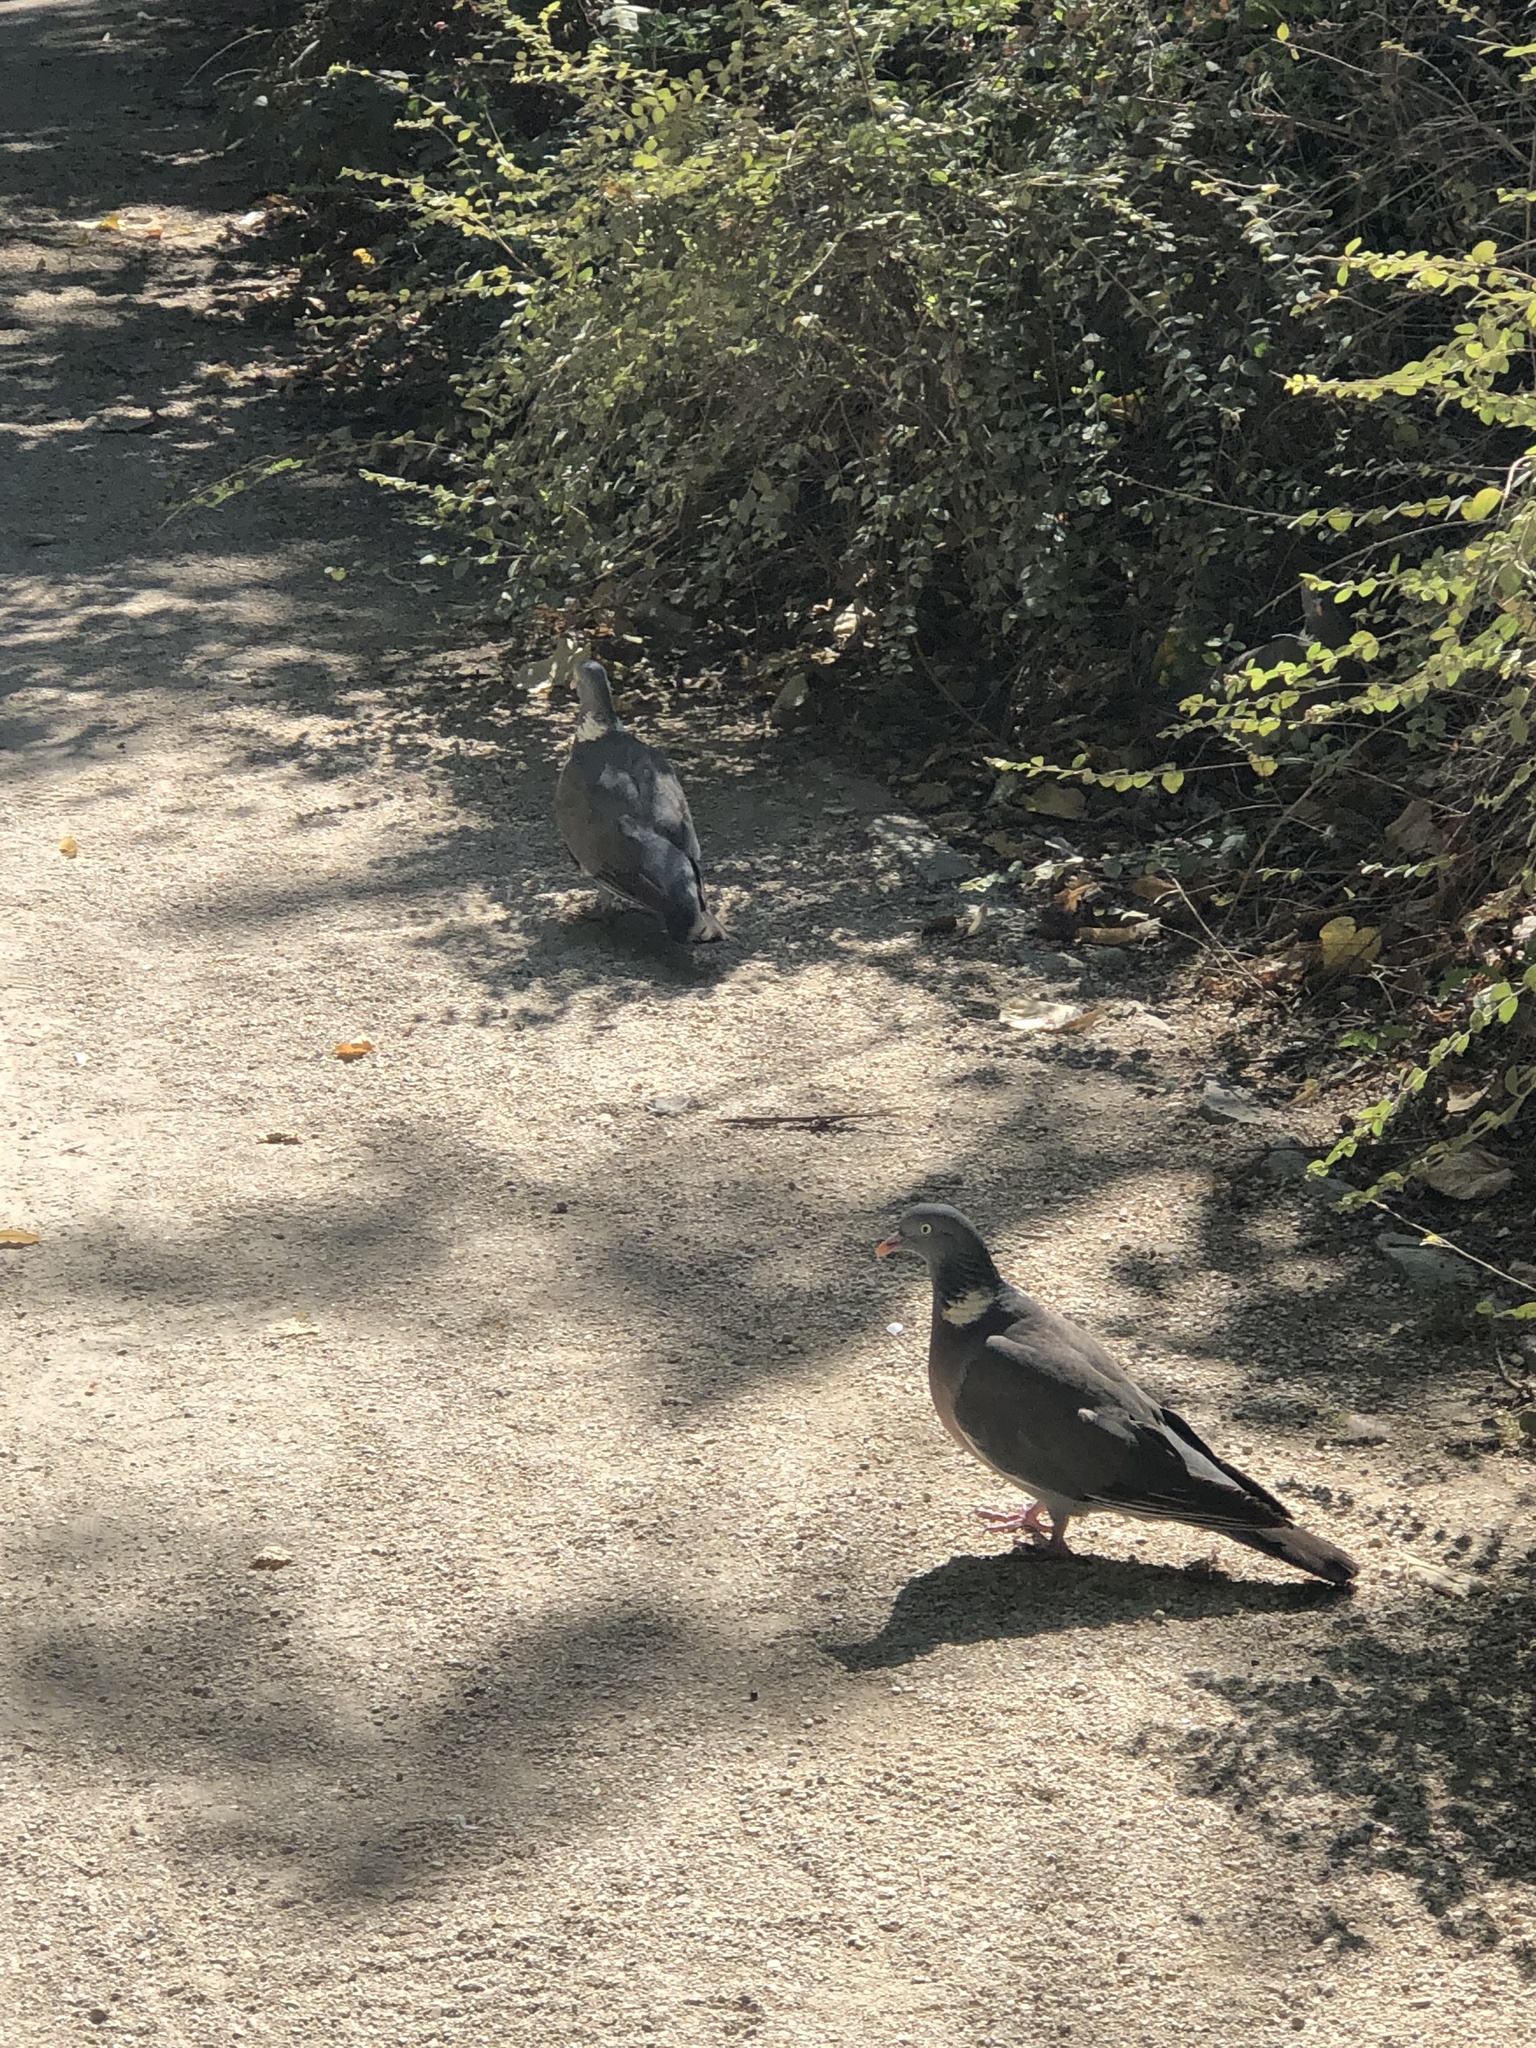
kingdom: Animalia
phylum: Chordata
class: Aves
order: Columbiformes
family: Columbidae
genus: Columba
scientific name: Columba palumbus
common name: Common wood pigeon
